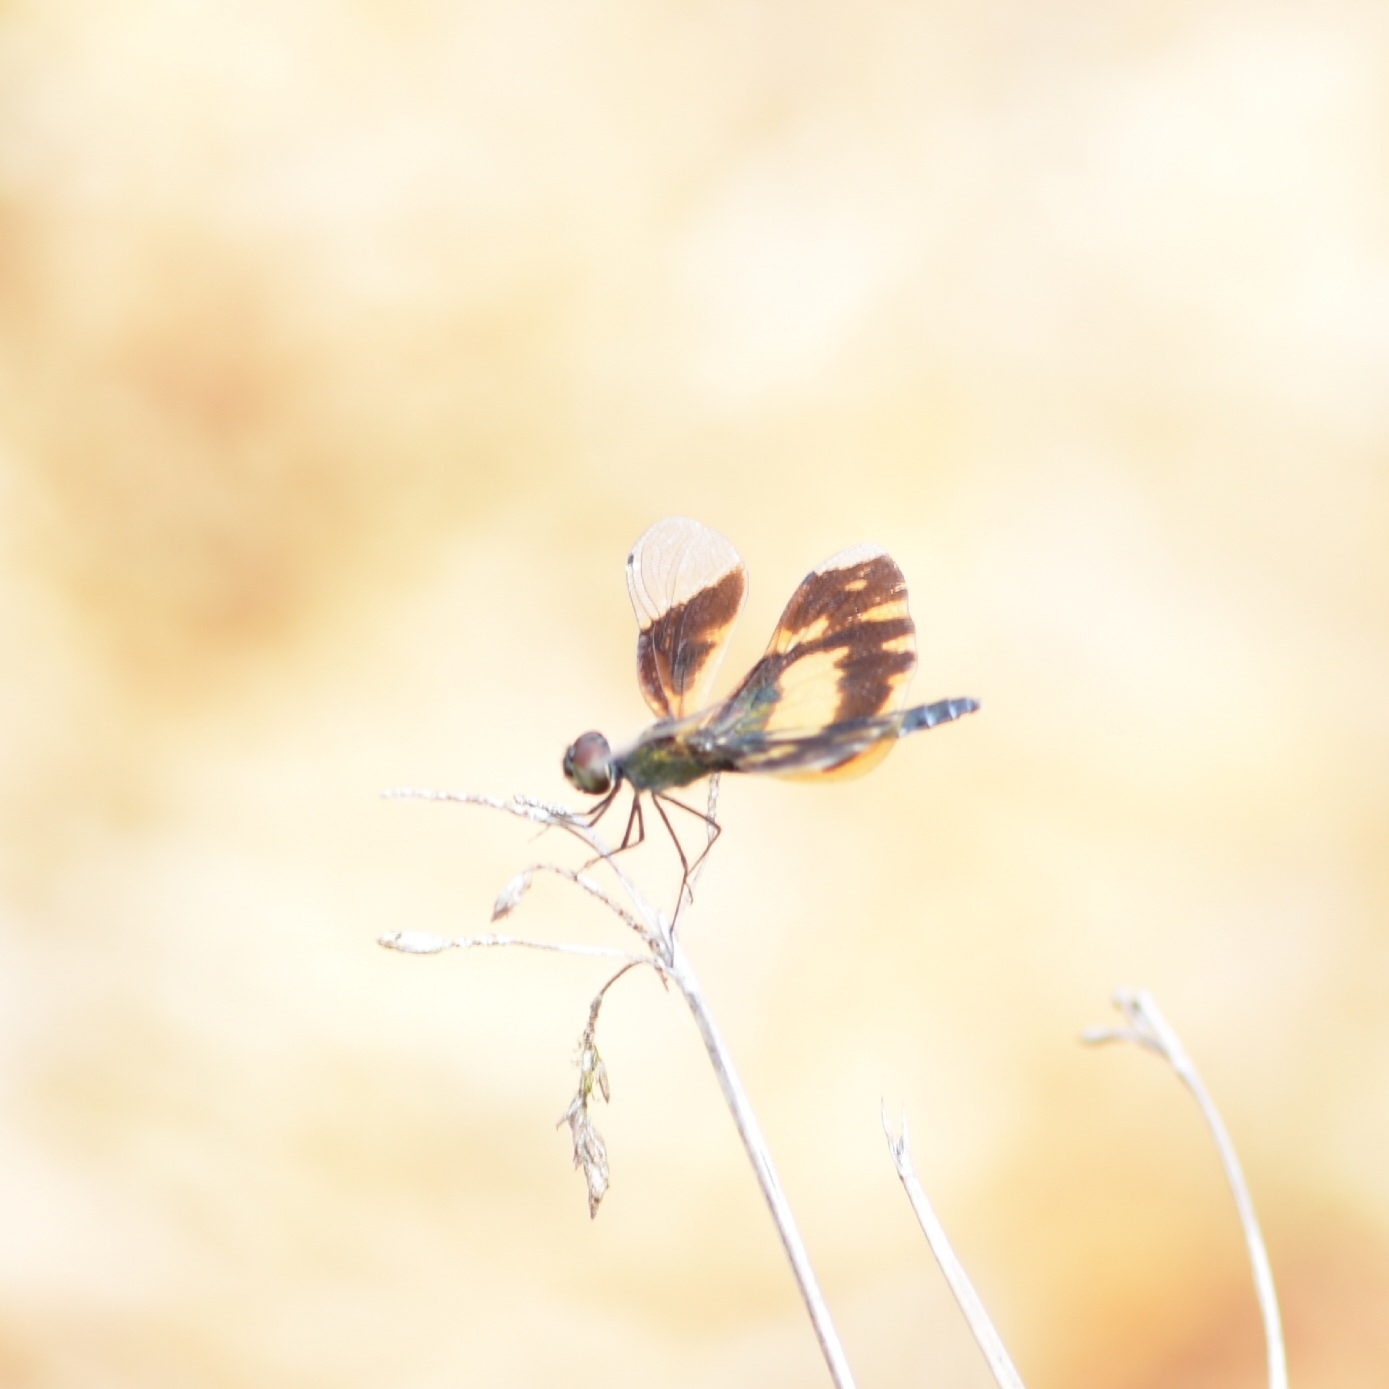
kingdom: Animalia
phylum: Arthropoda
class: Insecta
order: Odonata
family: Libellulidae
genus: Rhyothemis
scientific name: Rhyothemis variegata
